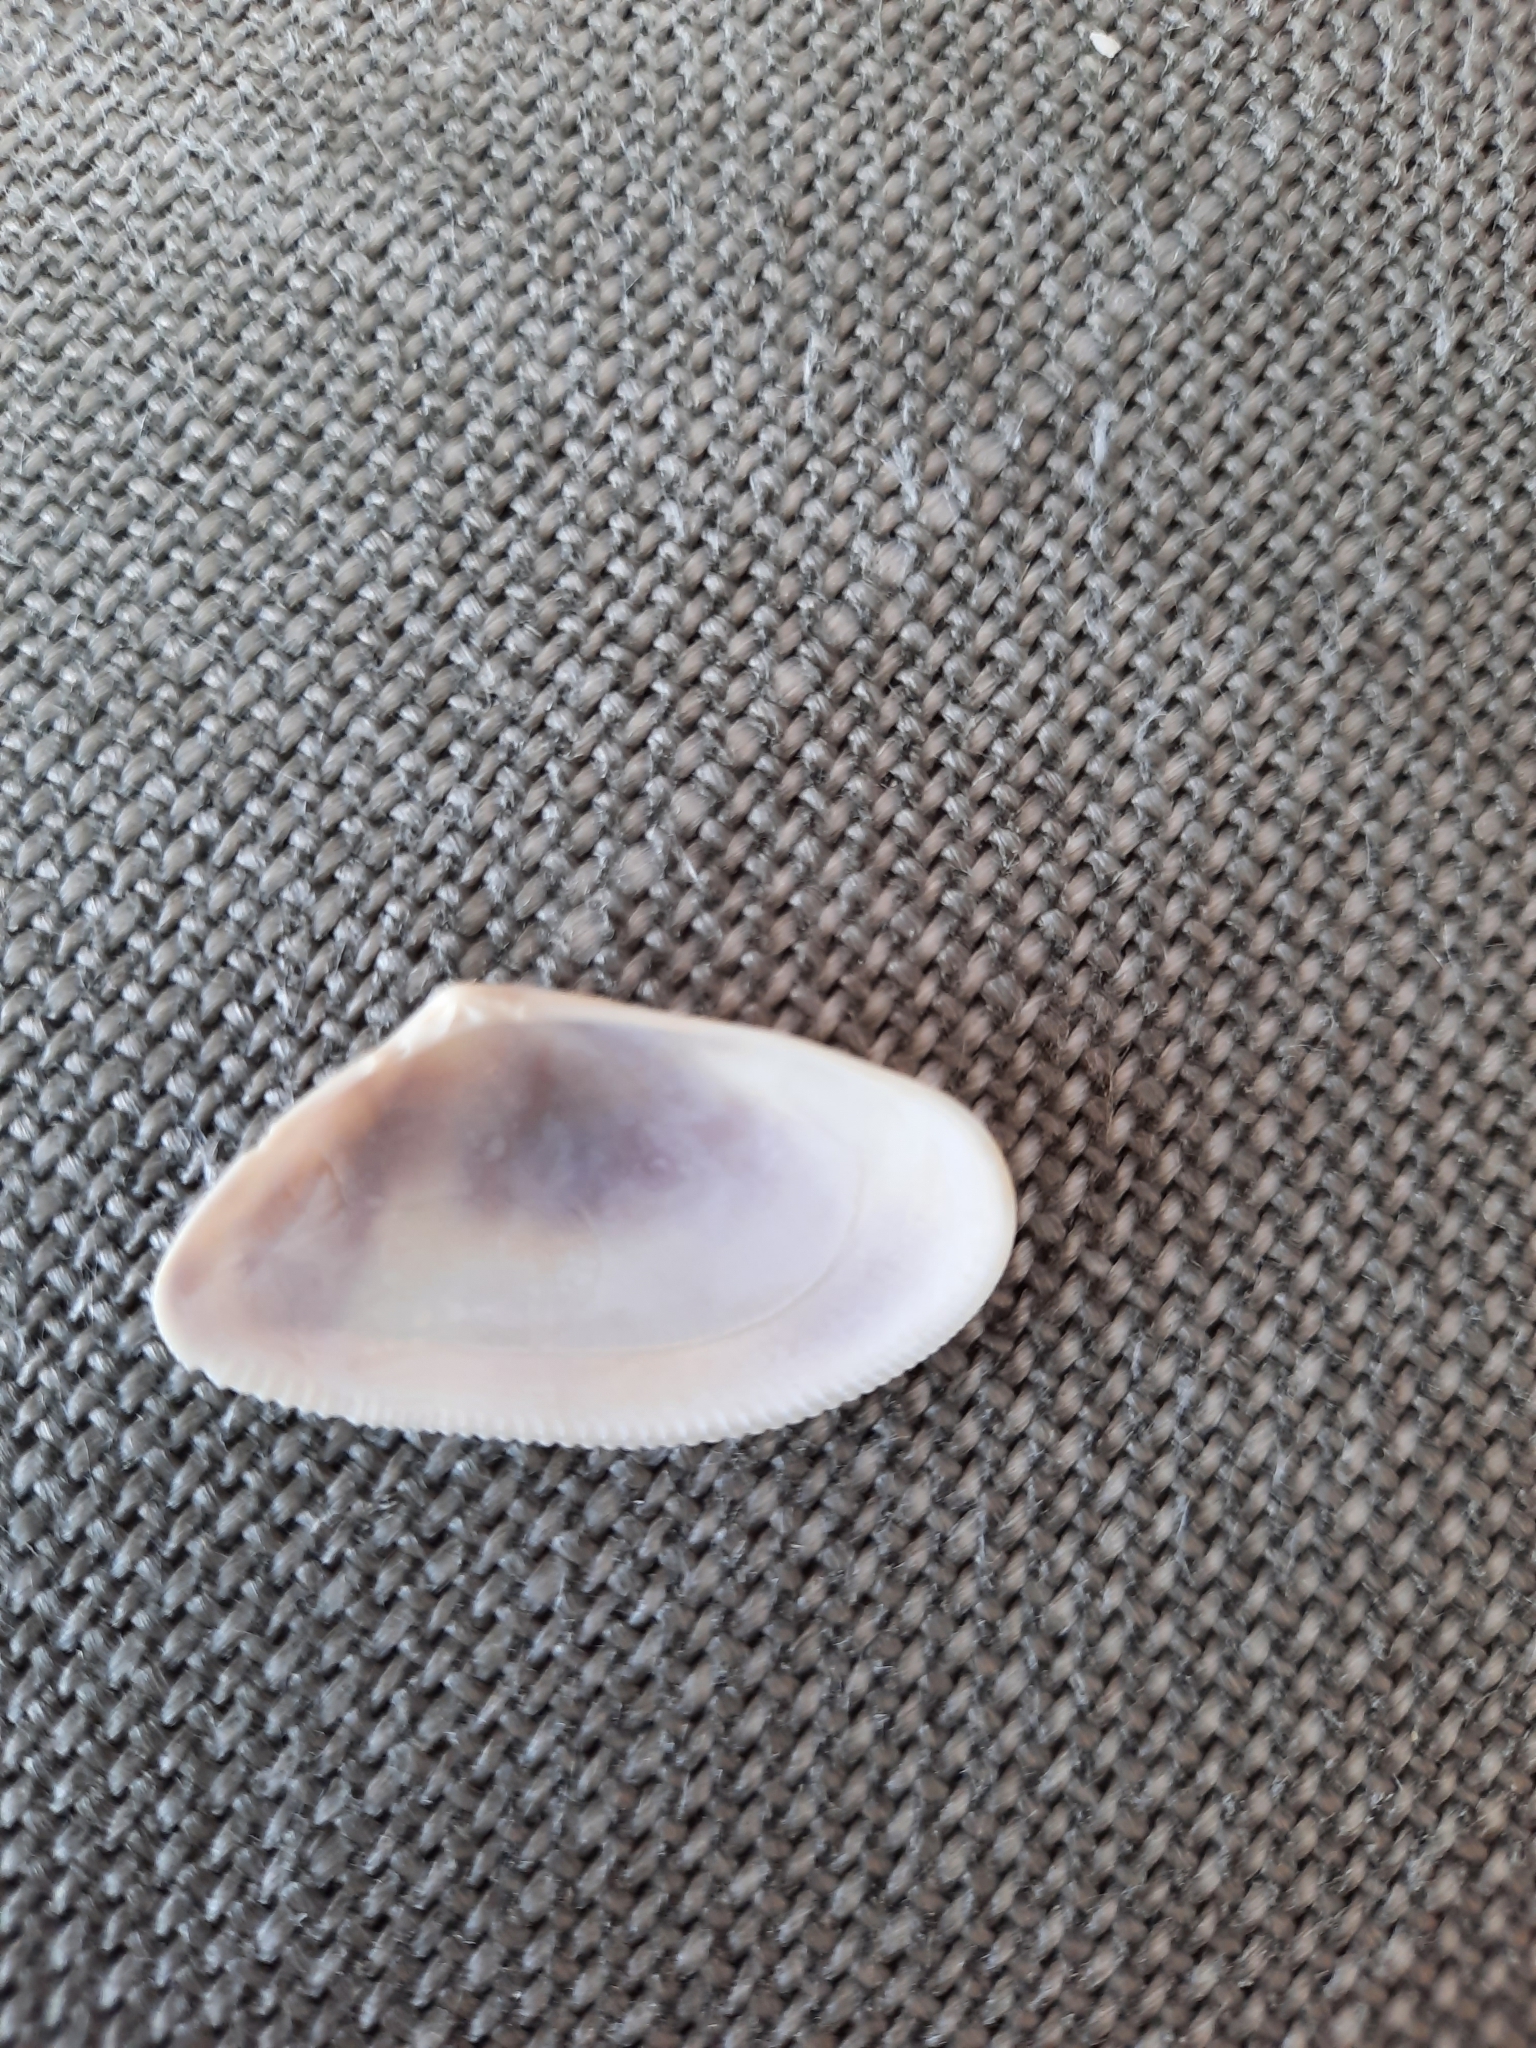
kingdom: Animalia
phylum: Mollusca
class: Bivalvia
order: Cardiida
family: Donacidae
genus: Donax
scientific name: Donax vittatus
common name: Banded wedge-shell
